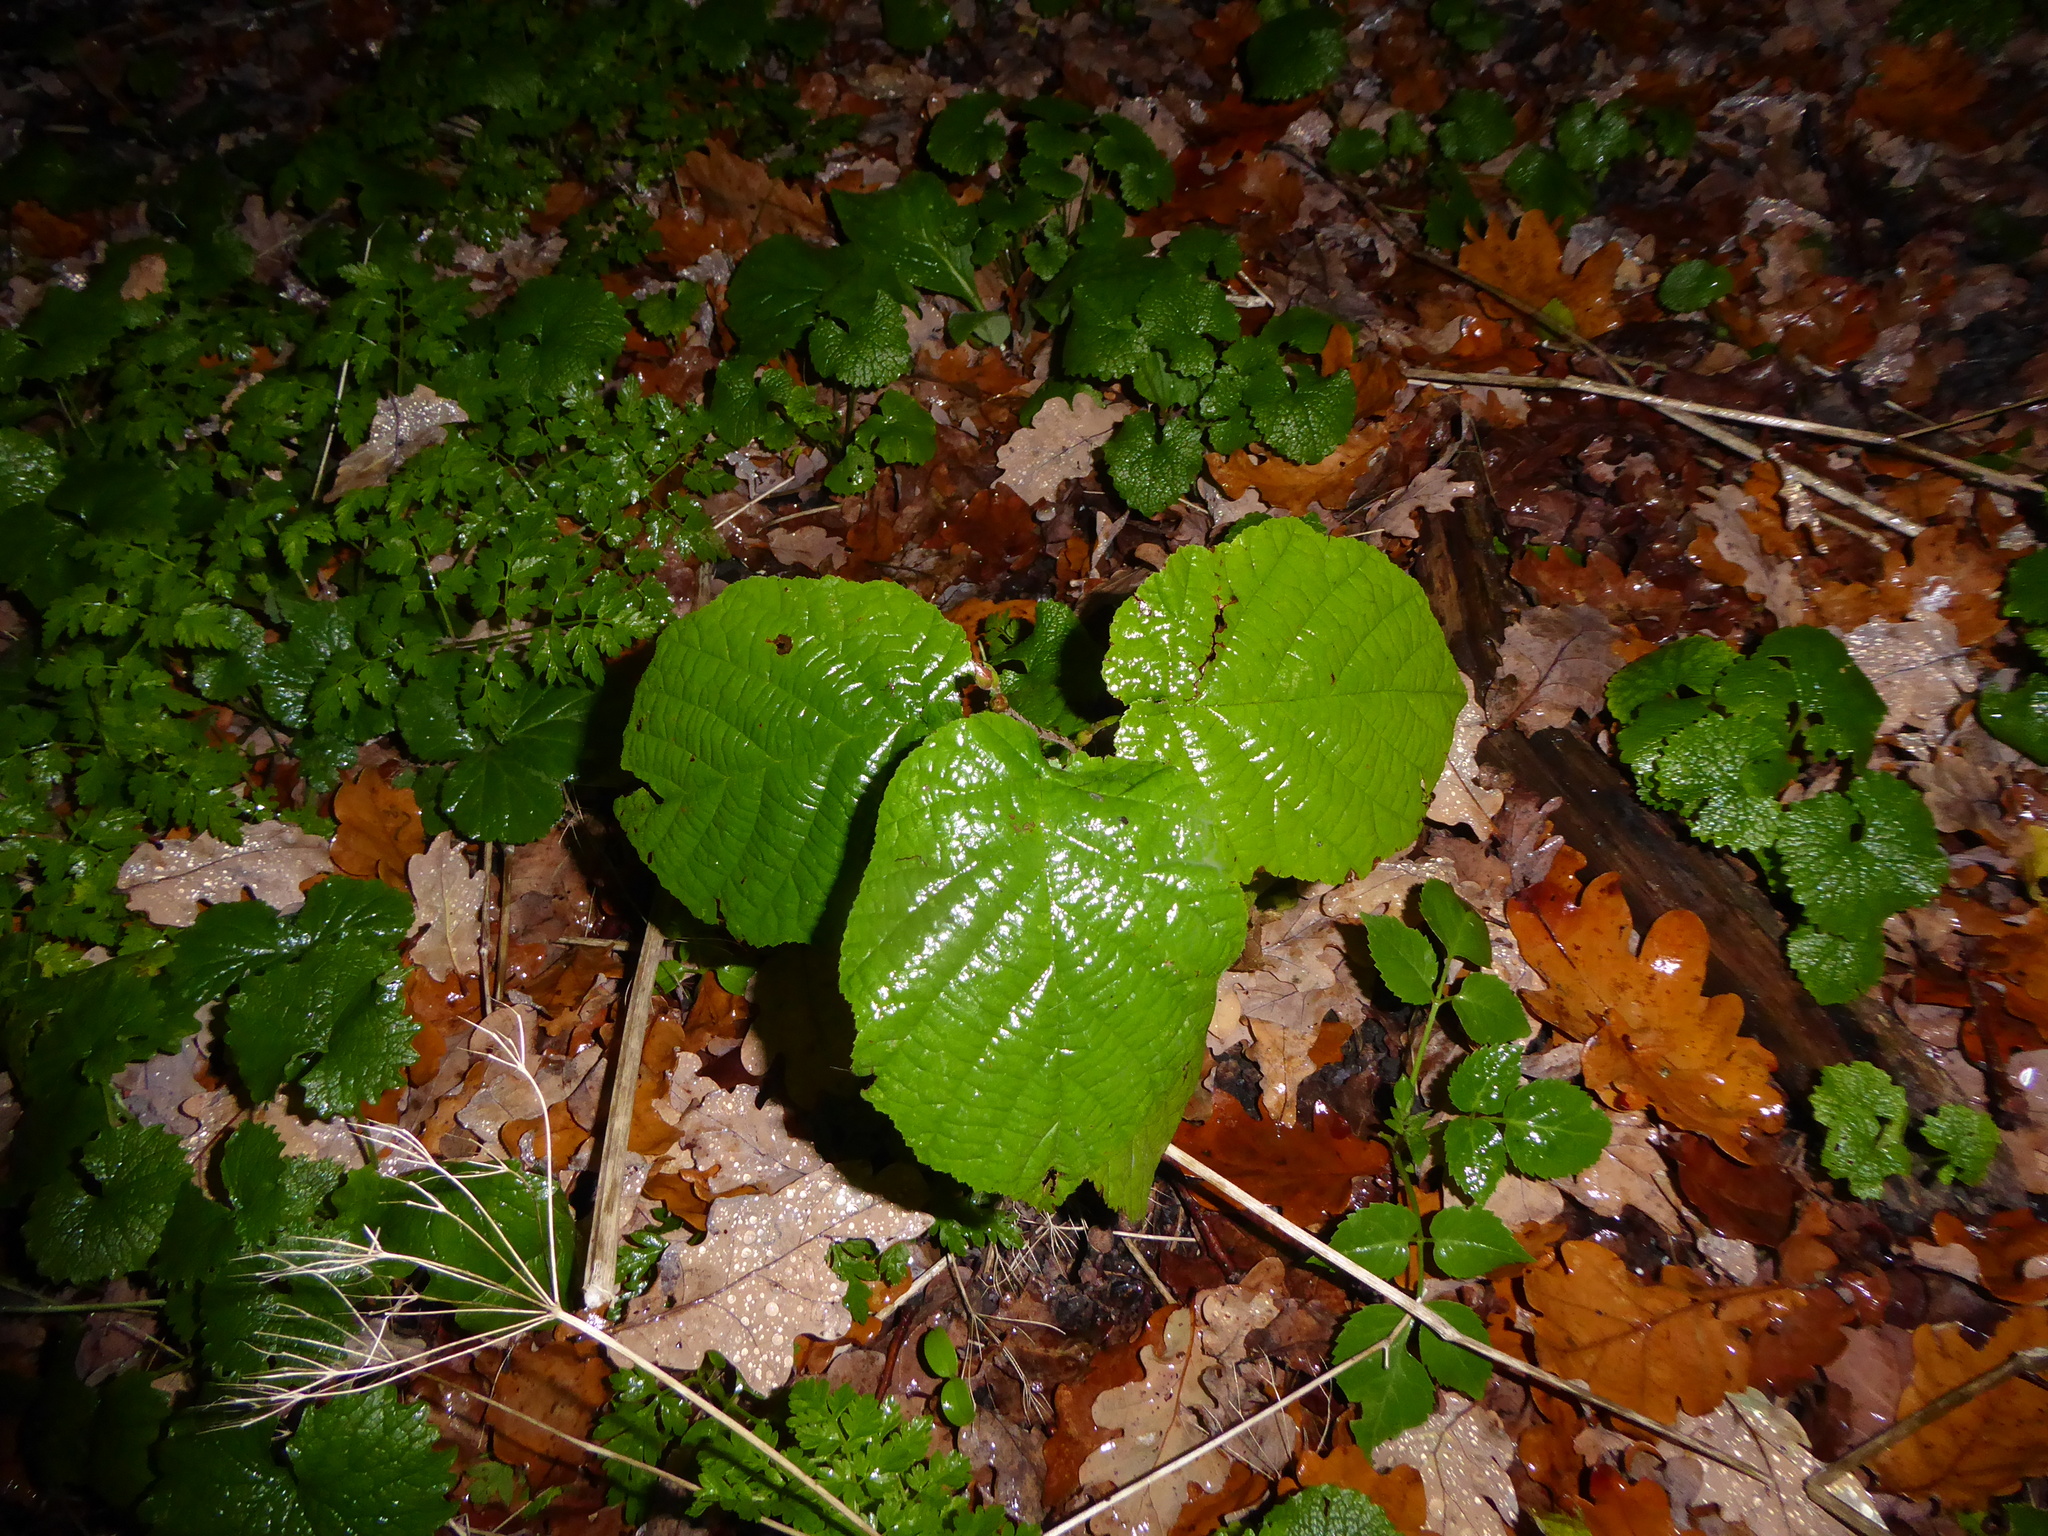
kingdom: Plantae
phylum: Tracheophyta
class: Magnoliopsida
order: Fagales
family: Betulaceae
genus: Corylus
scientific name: Corylus avellana
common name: European hazel
